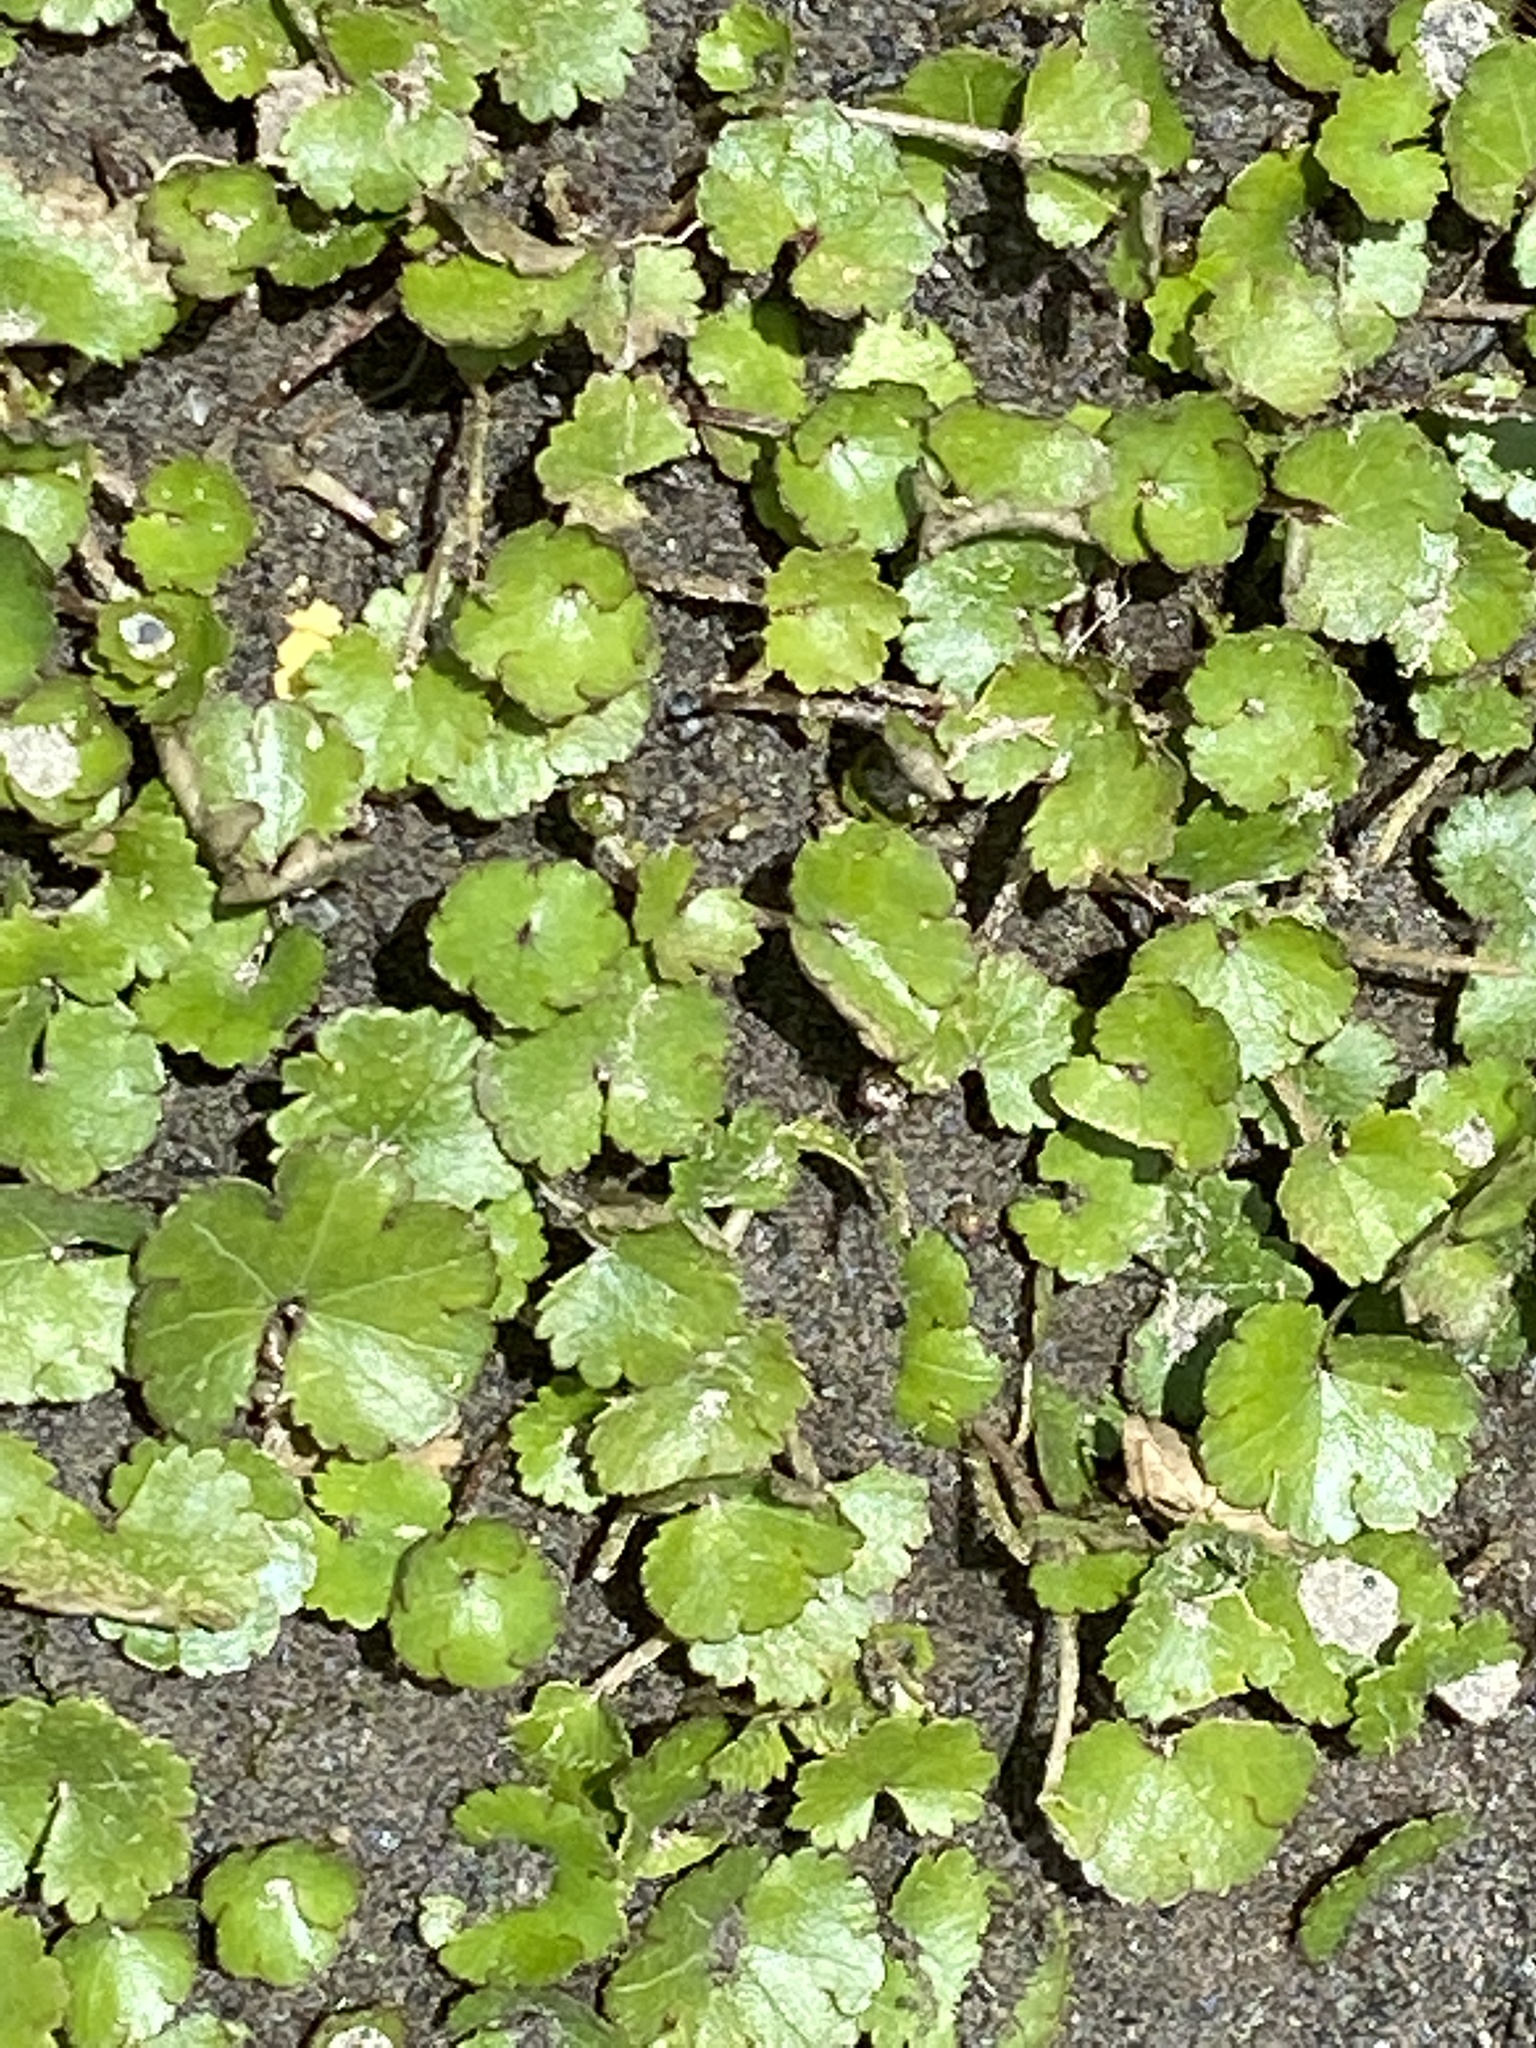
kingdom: Plantae
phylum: Tracheophyta
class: Magnoliopsida
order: Apiales
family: Araliaceae
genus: Hydrocotyle
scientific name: Hydrocotyle novae-zeelandiae
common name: New zealand pennywort
